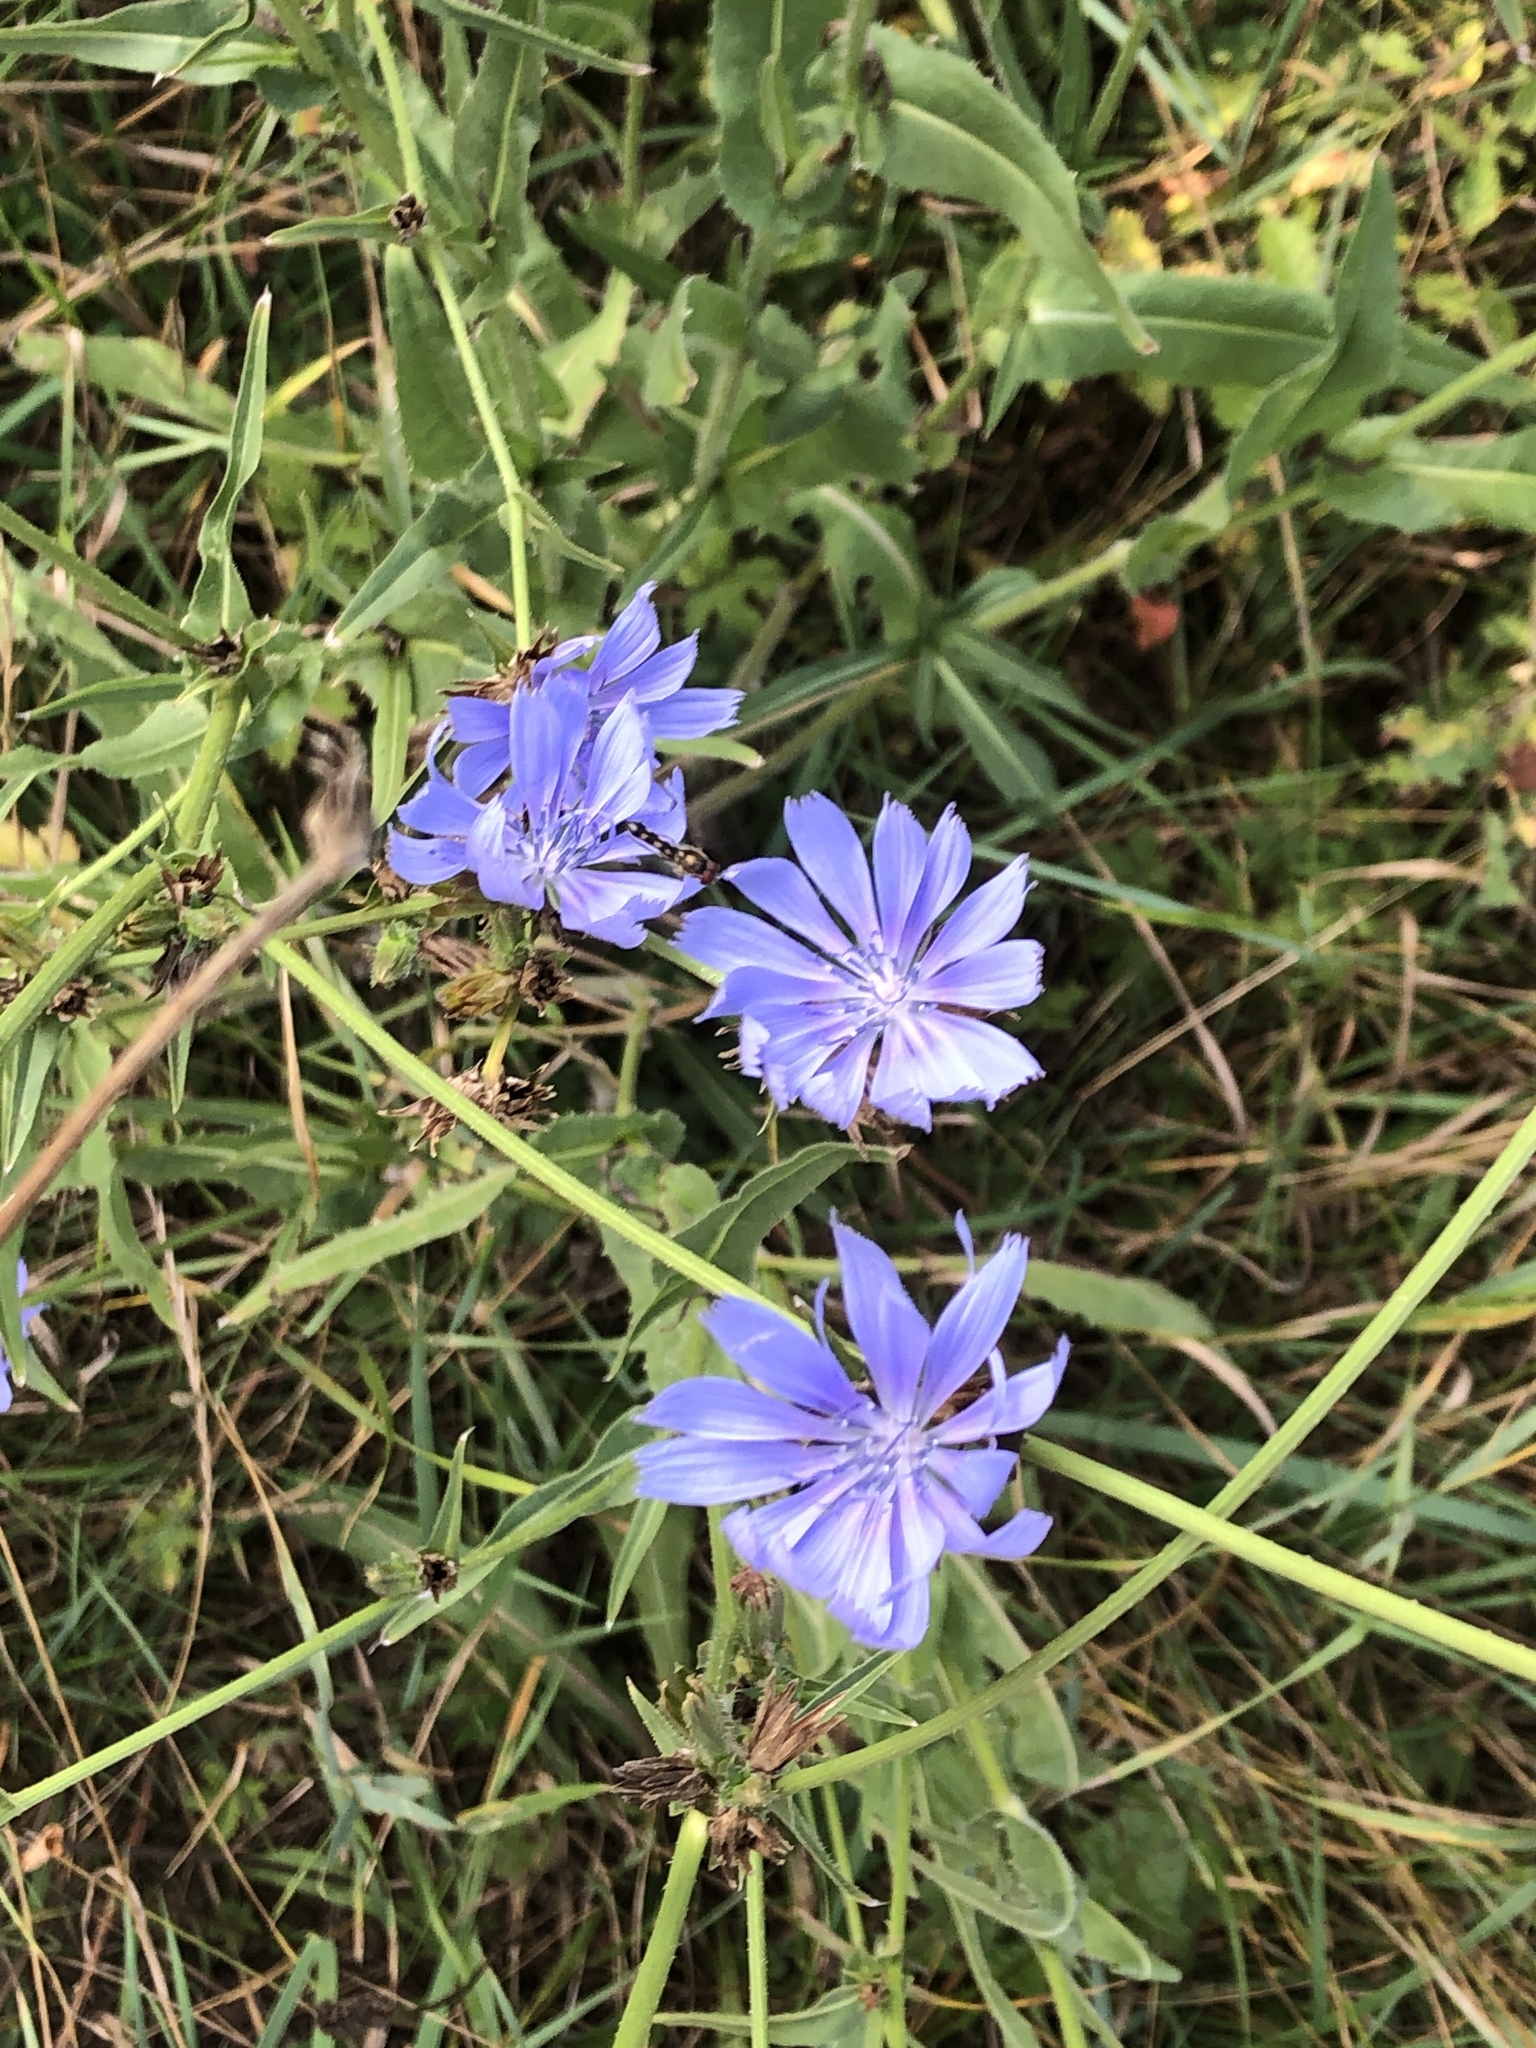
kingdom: Plantae
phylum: Tracheophyta
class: Magnoliopsida
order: Asterales
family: Asteraceae
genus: Cichorium
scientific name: Cichorium intybus
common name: Chicory
